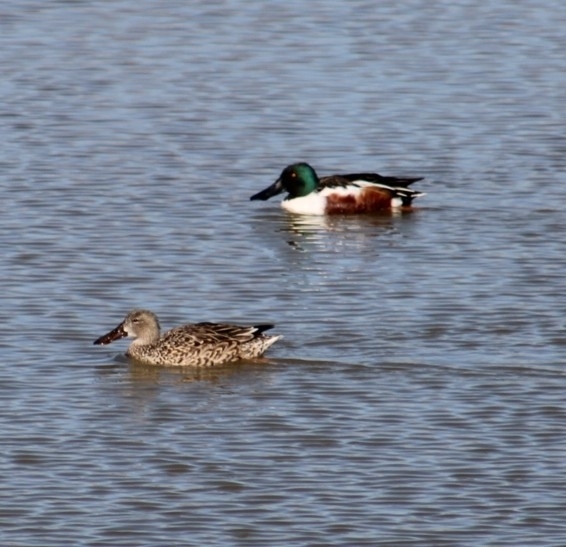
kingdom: Animalia
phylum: Chordata
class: Aves
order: Anseriformes
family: Anatidae
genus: Spatula
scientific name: Spatula clypeata
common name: Northern shoveler
